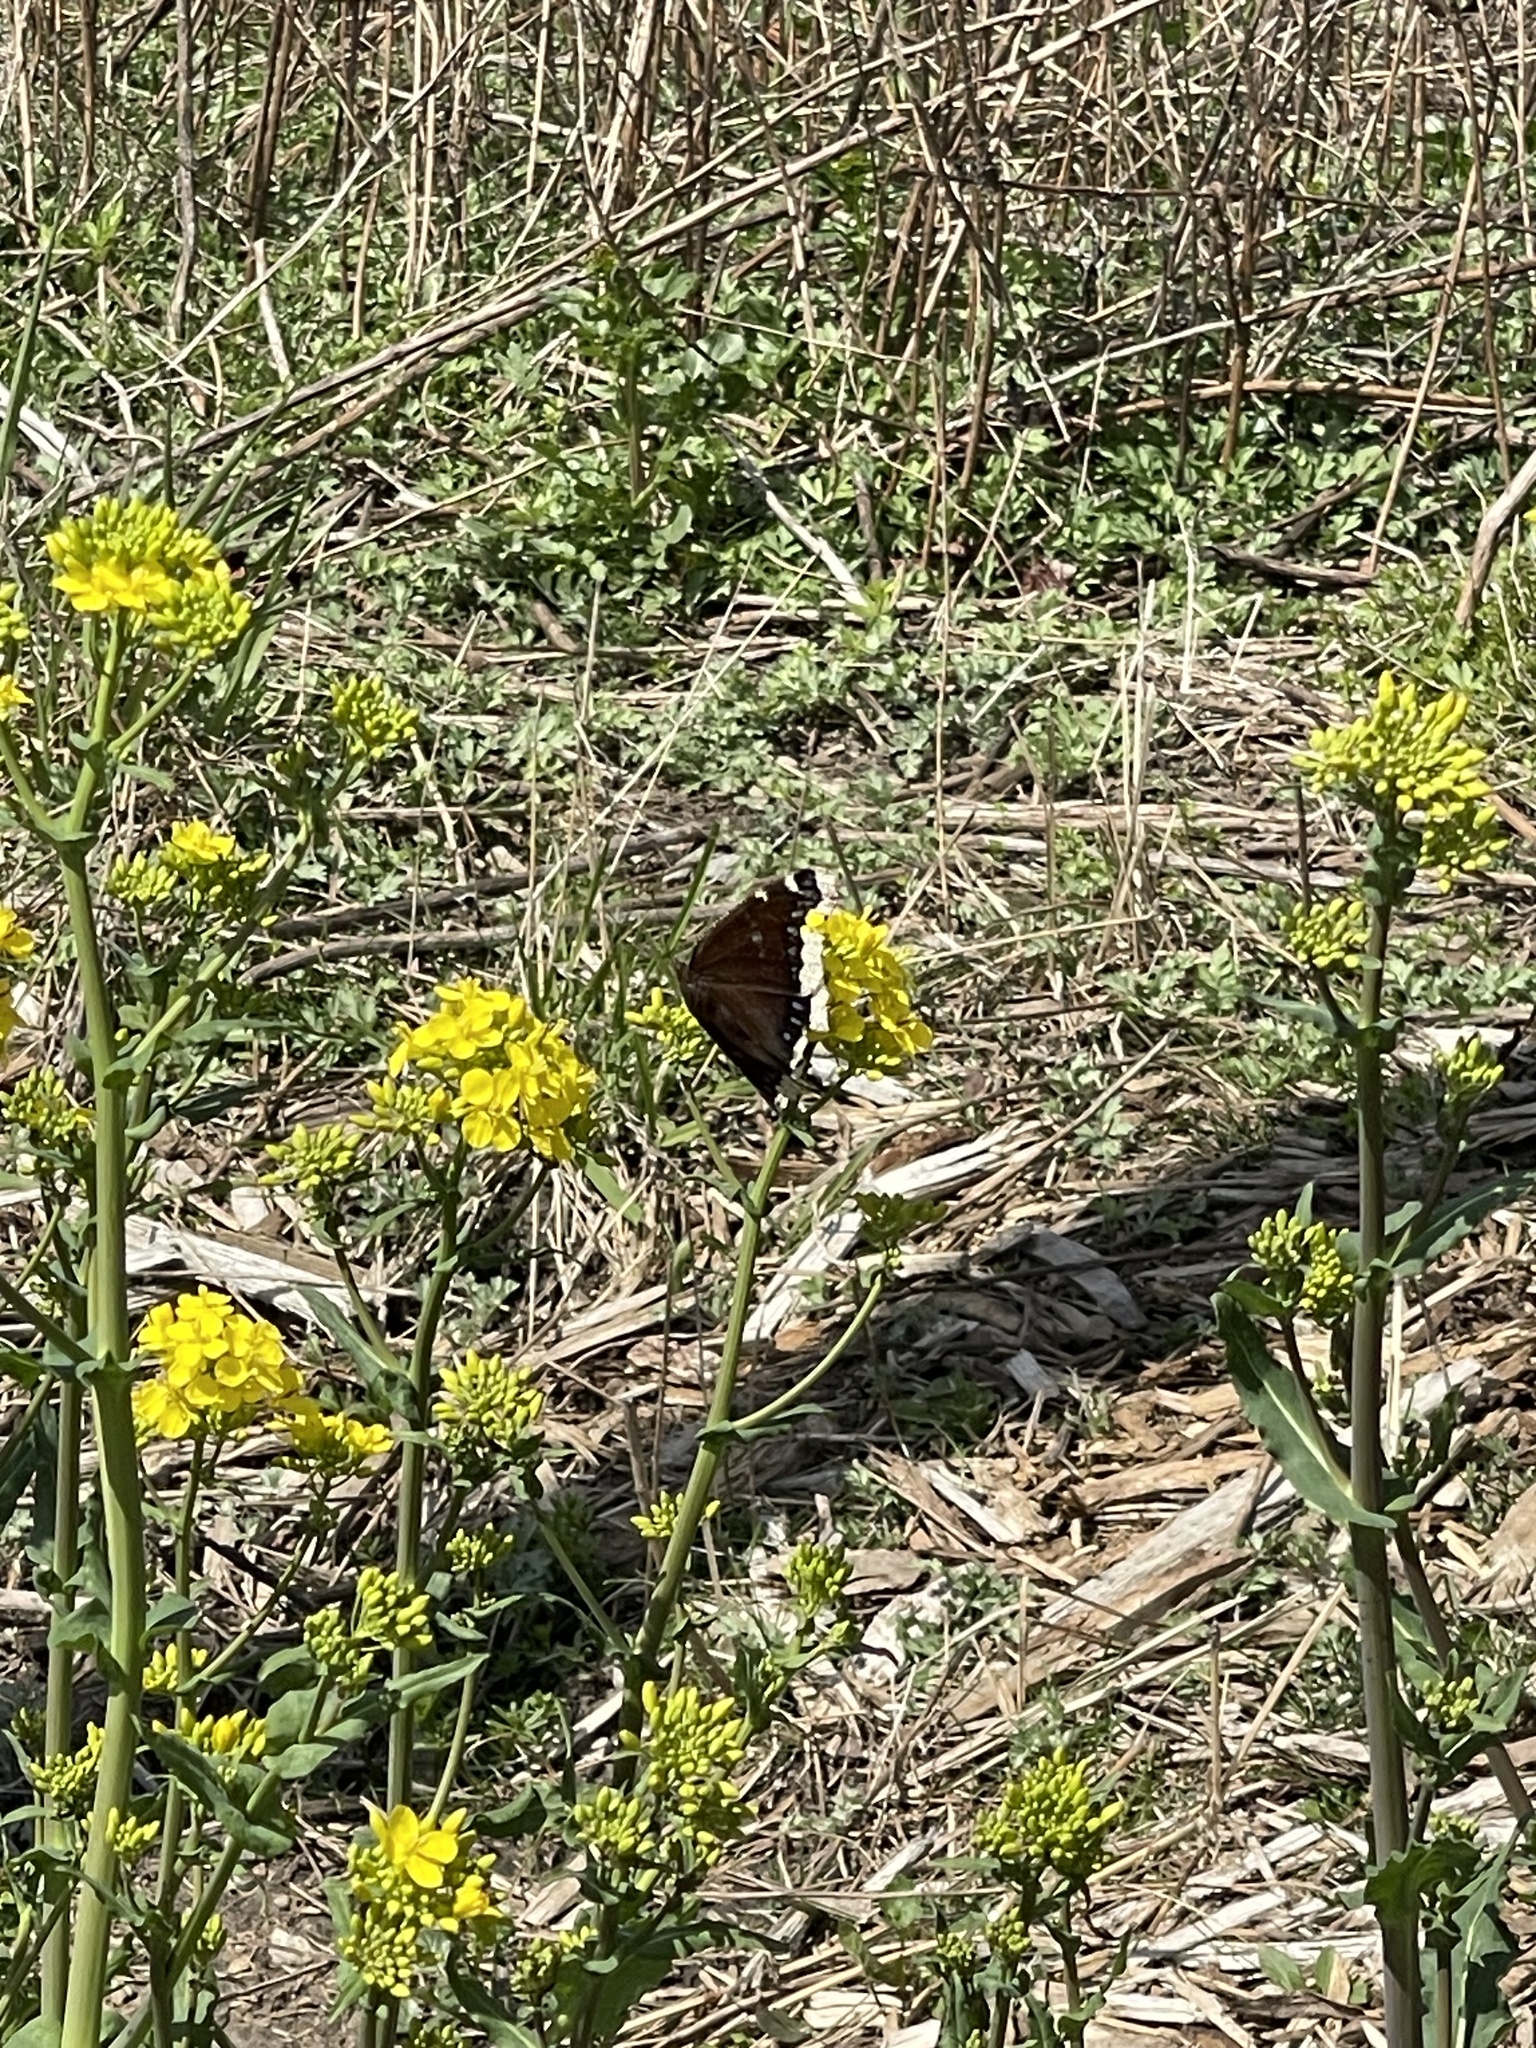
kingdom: Animalia
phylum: Arthropoda
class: Insecta
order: Lepidoptera
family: Nymphalidae
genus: Nymphalis
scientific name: Nymphalis antiopa
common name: Camberwell beauty
